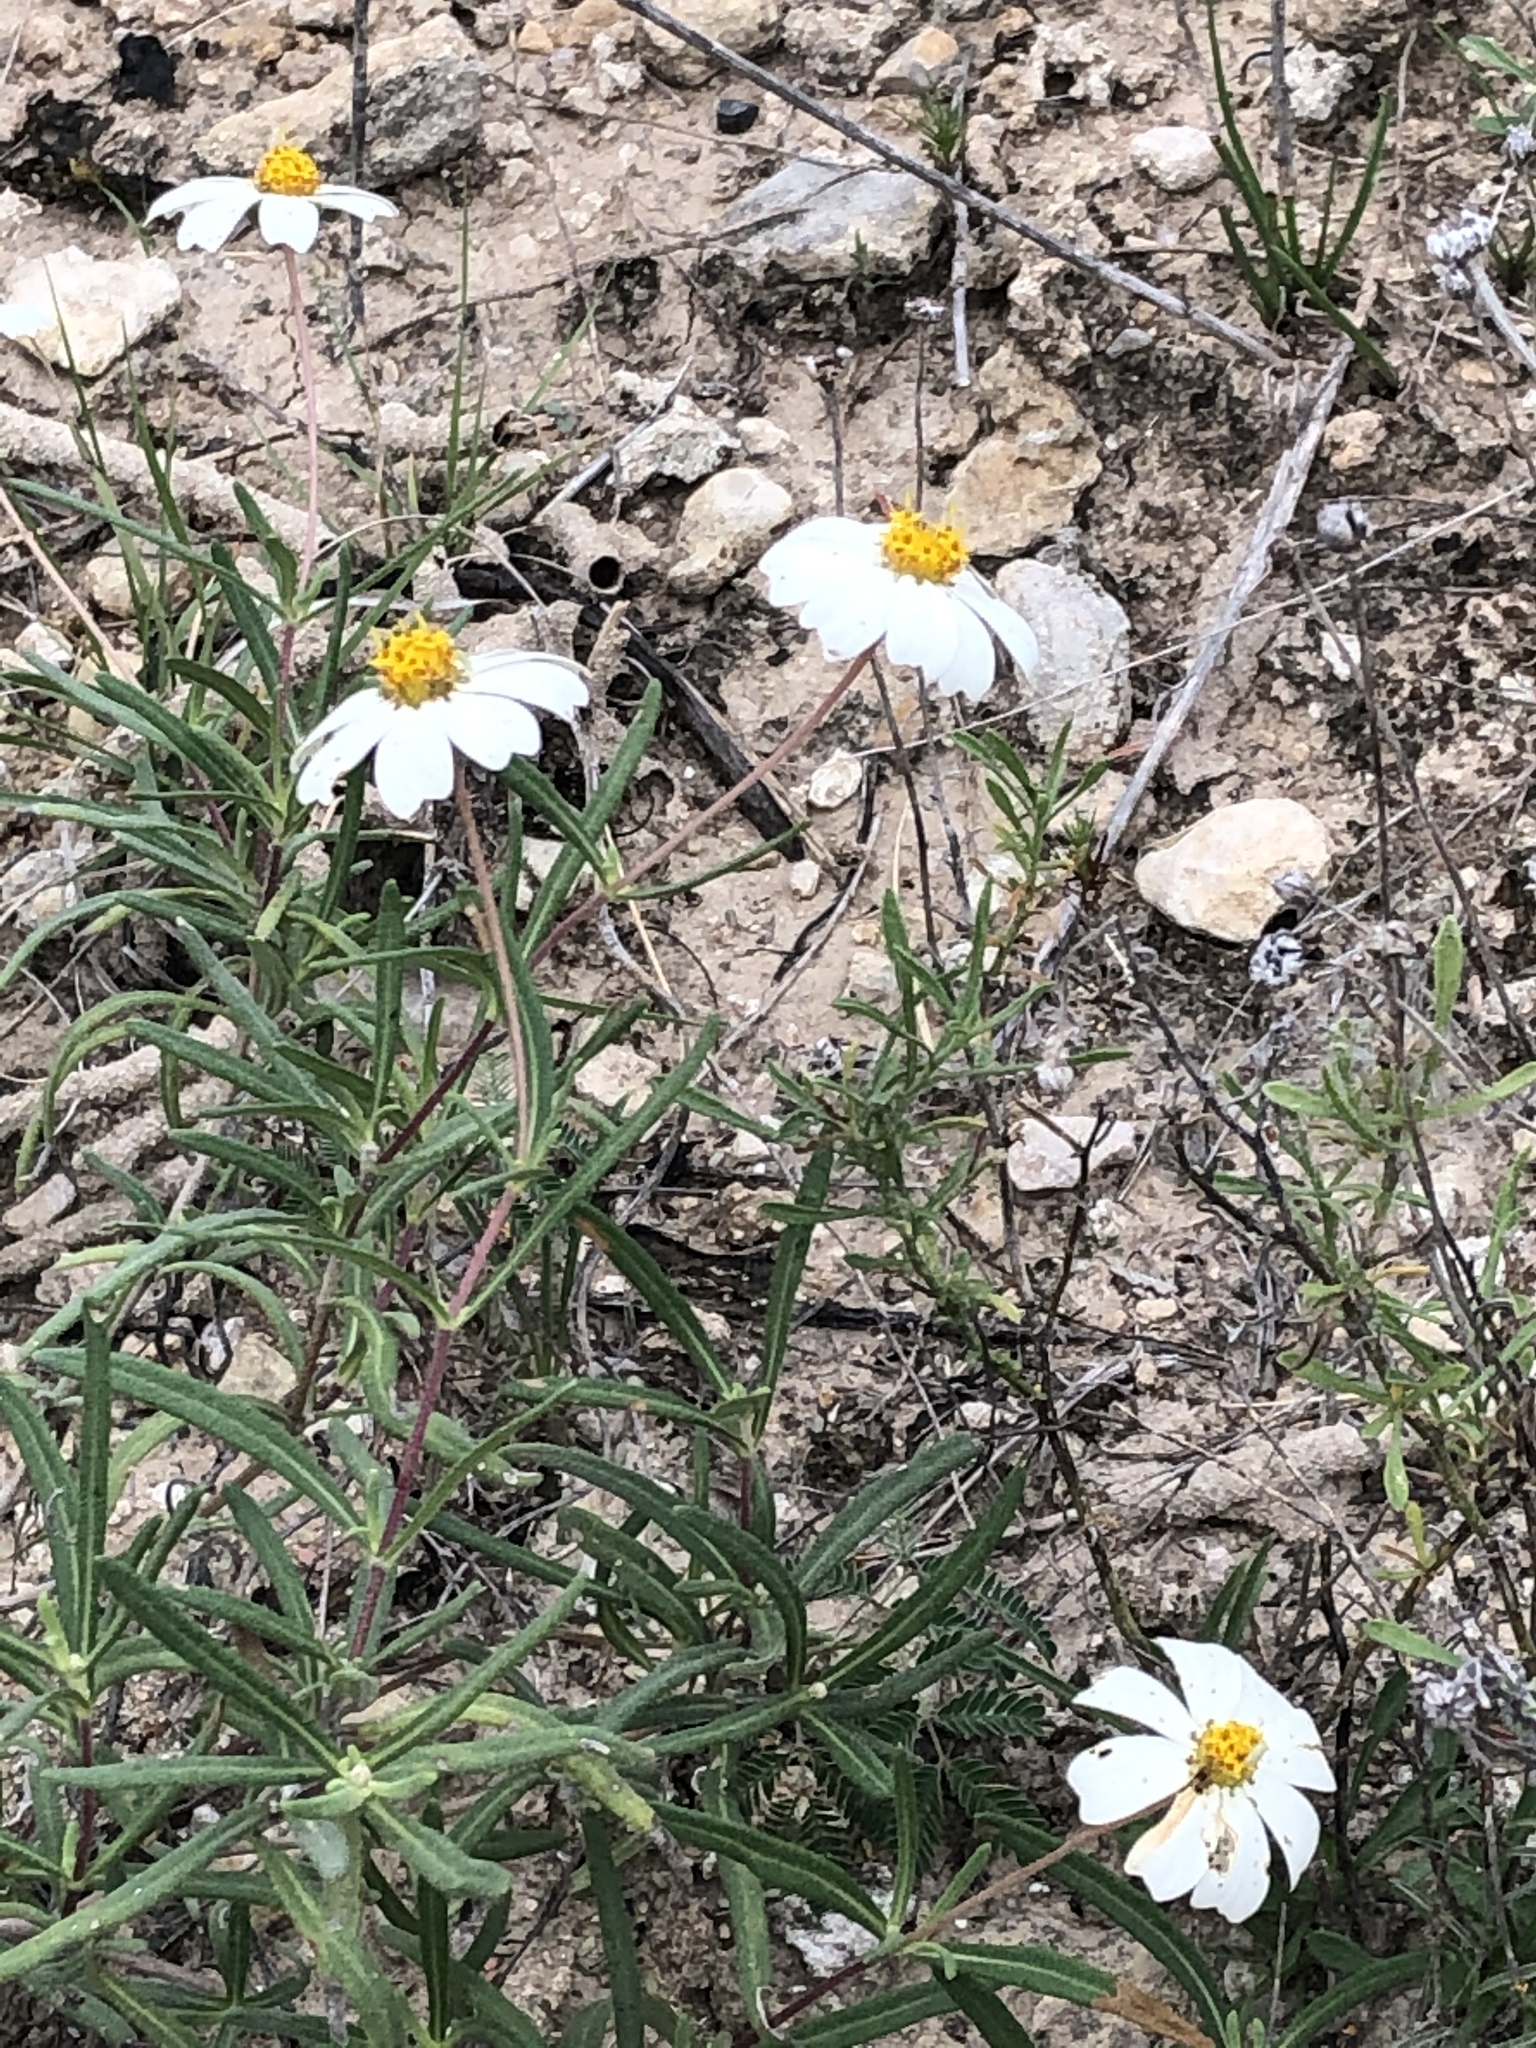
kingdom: Plantae
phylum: Tracheophyta
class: Magnoliopsida
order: Asterales
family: Asteraceae
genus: Melampodium
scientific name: Melampodium leucanthum
